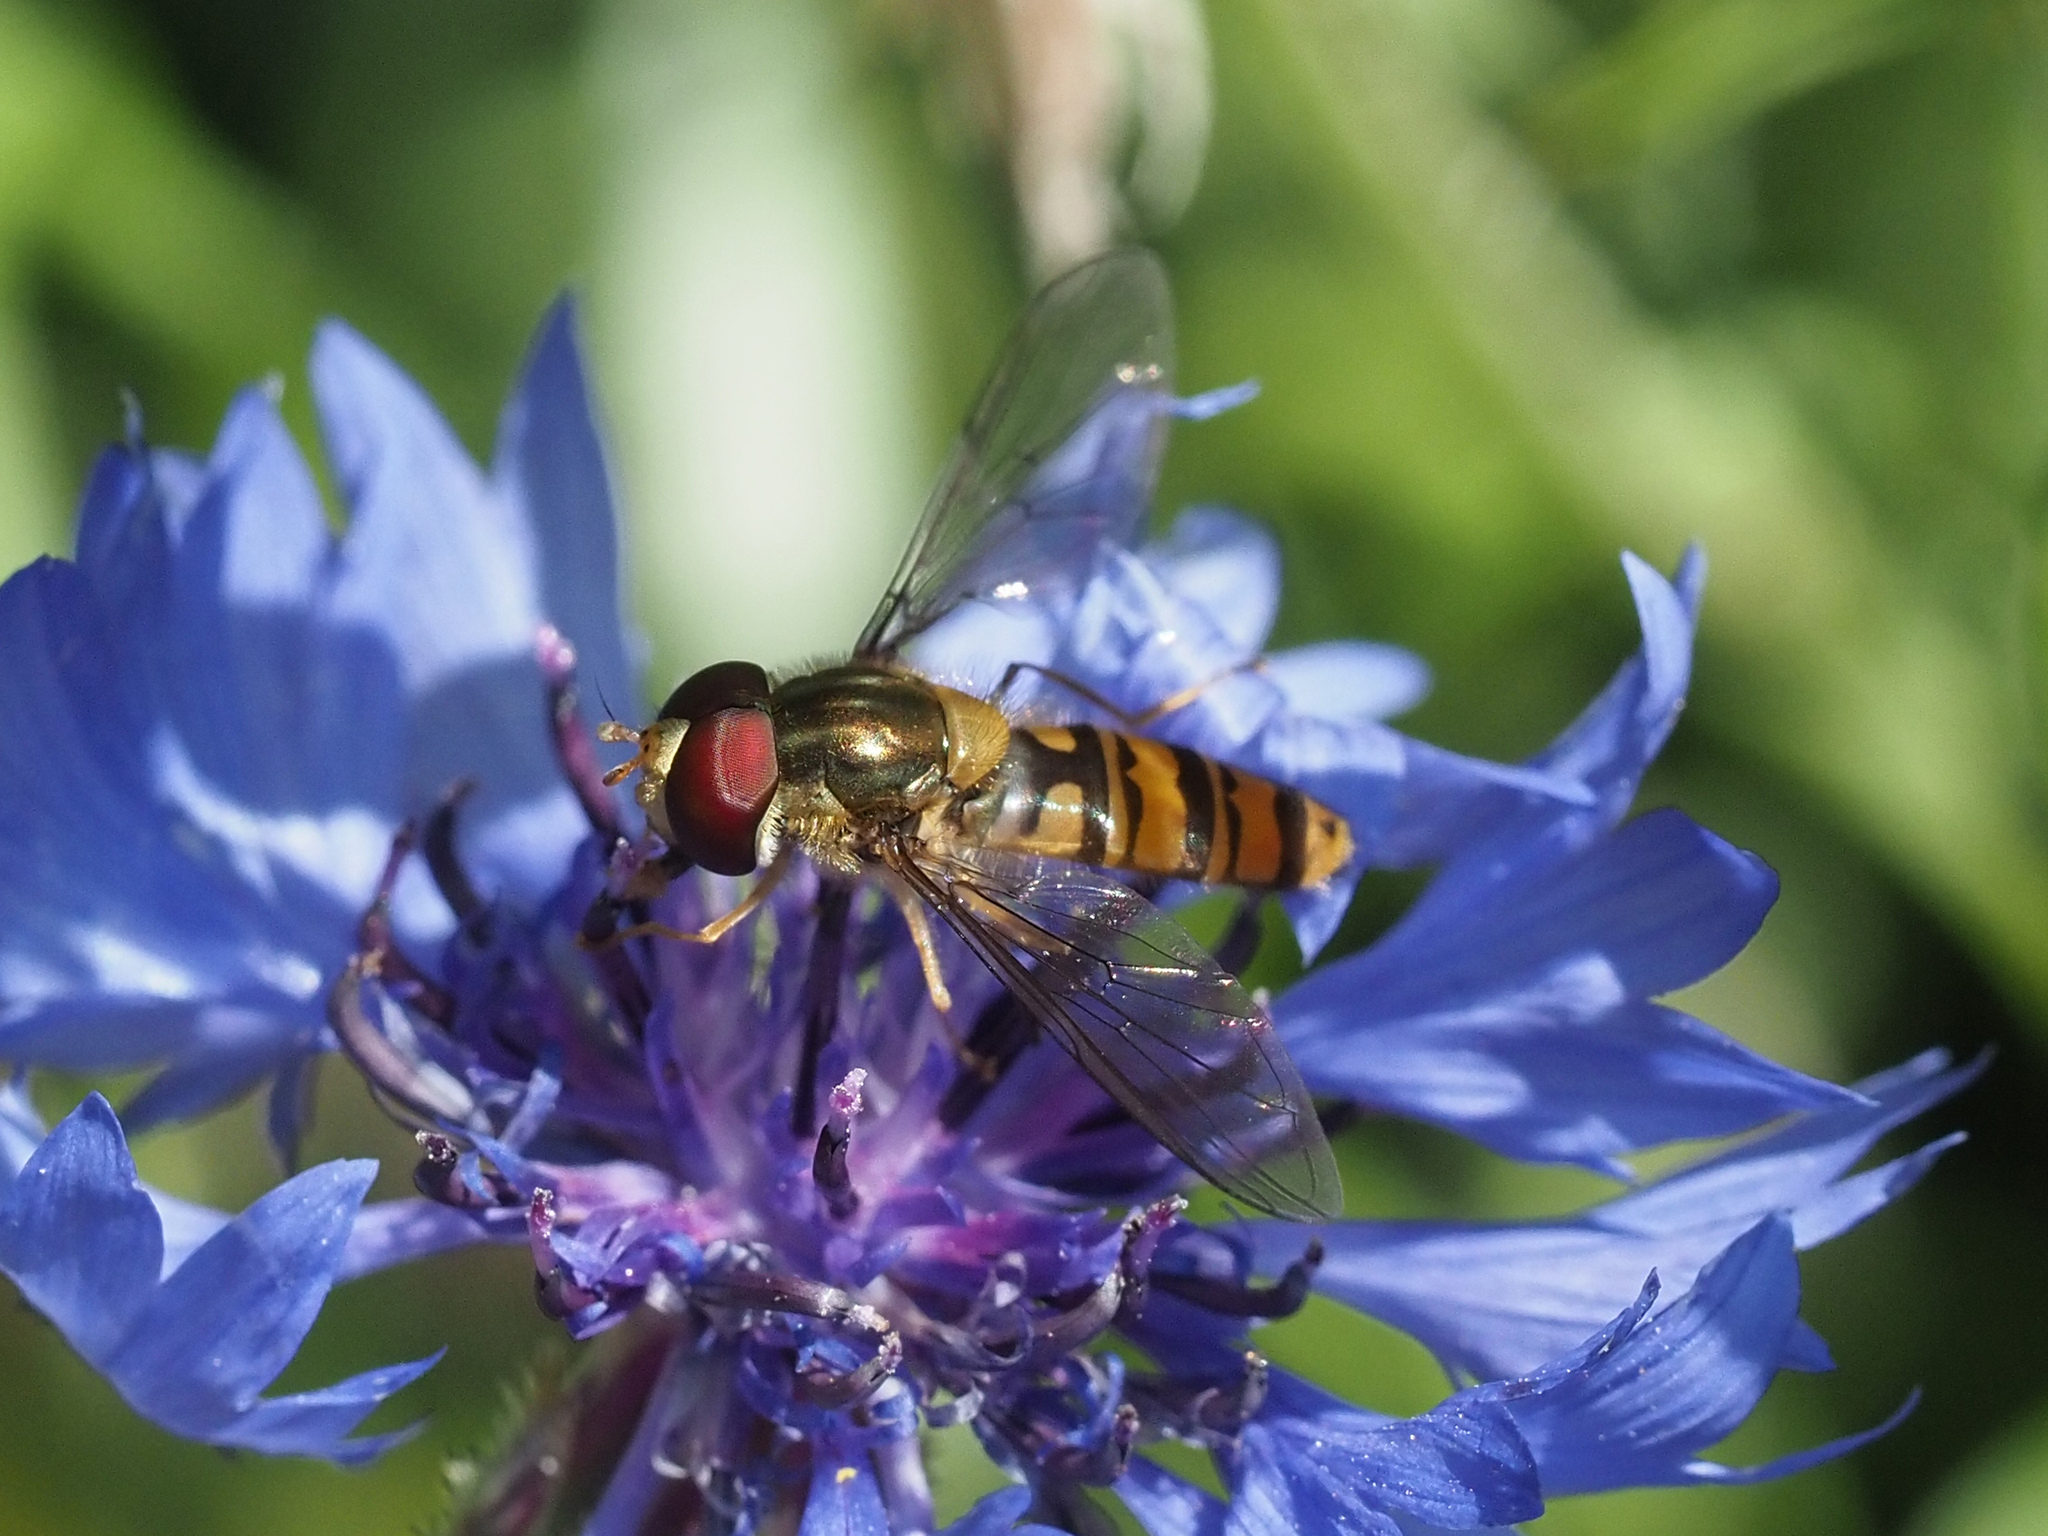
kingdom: Animalia
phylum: Arthropoda
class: Insecta
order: Diptera
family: Syrphidae
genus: Episyrphus
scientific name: Episyrphus balteatus
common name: Marmalade hoverfly
